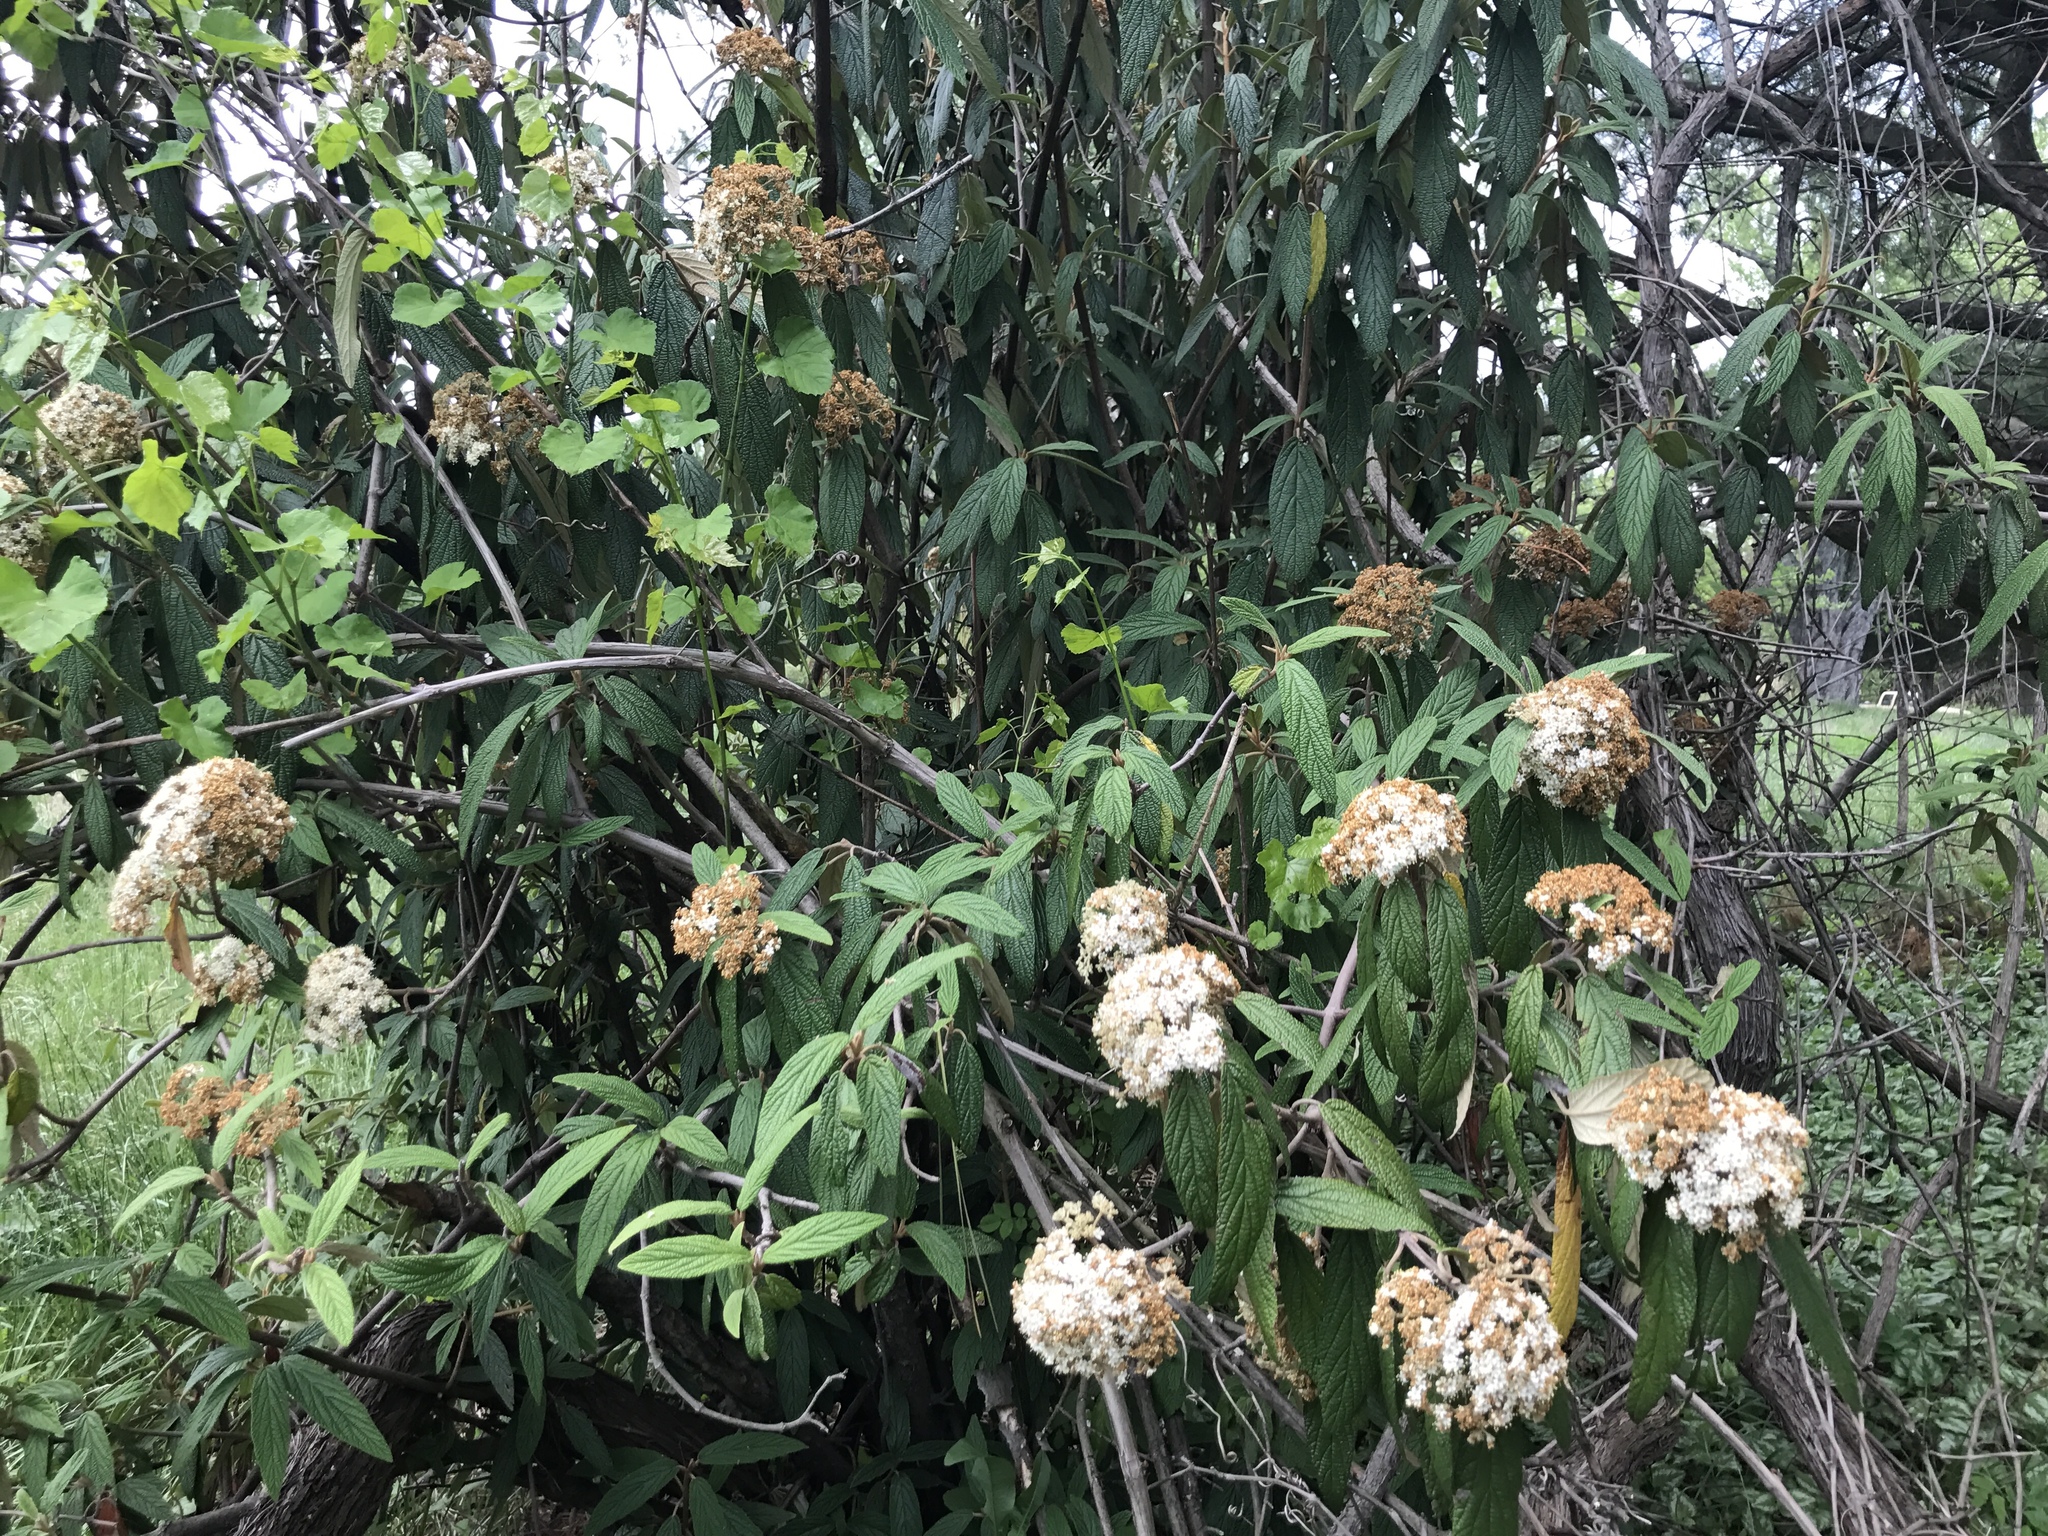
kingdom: Plantae
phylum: Tracheophyta
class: Magnoliopsida
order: Dipsacales
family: Viburnaceae
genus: Viburnum
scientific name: Viburnum rhytidophyllum
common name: Wrinkled viburnum
